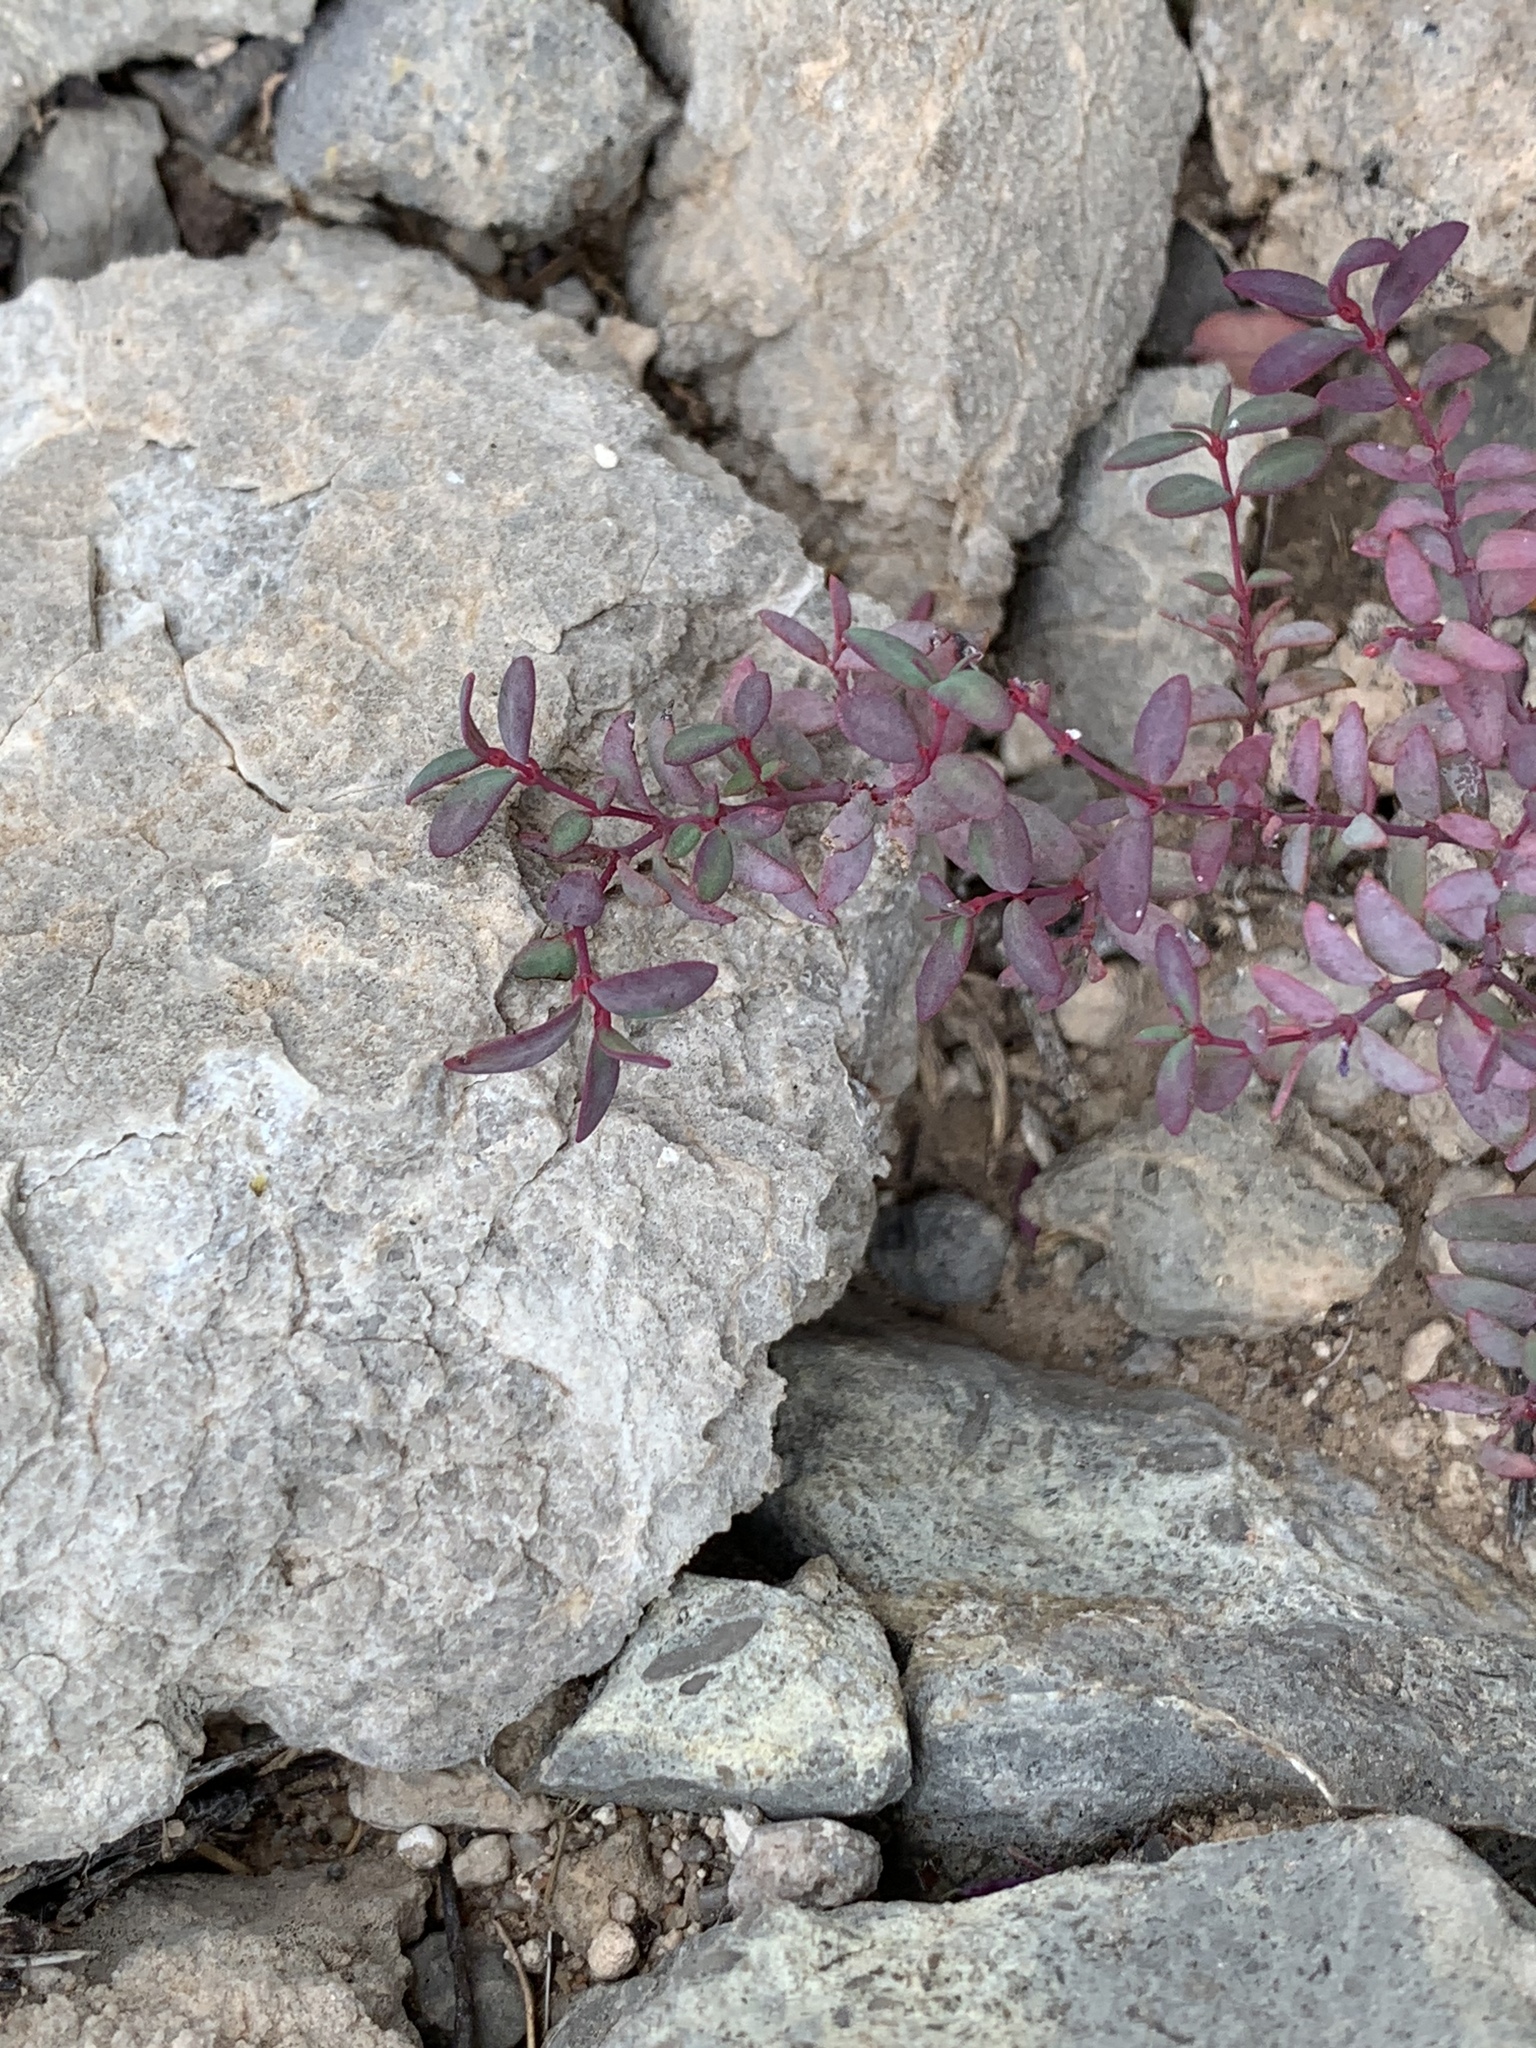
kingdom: Plantae
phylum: Tracheophyta
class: Magnoliopsida
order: Malpighiales
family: Euphorbiaceae
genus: Euphorbia
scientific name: Euphorbia chaetocalyx
